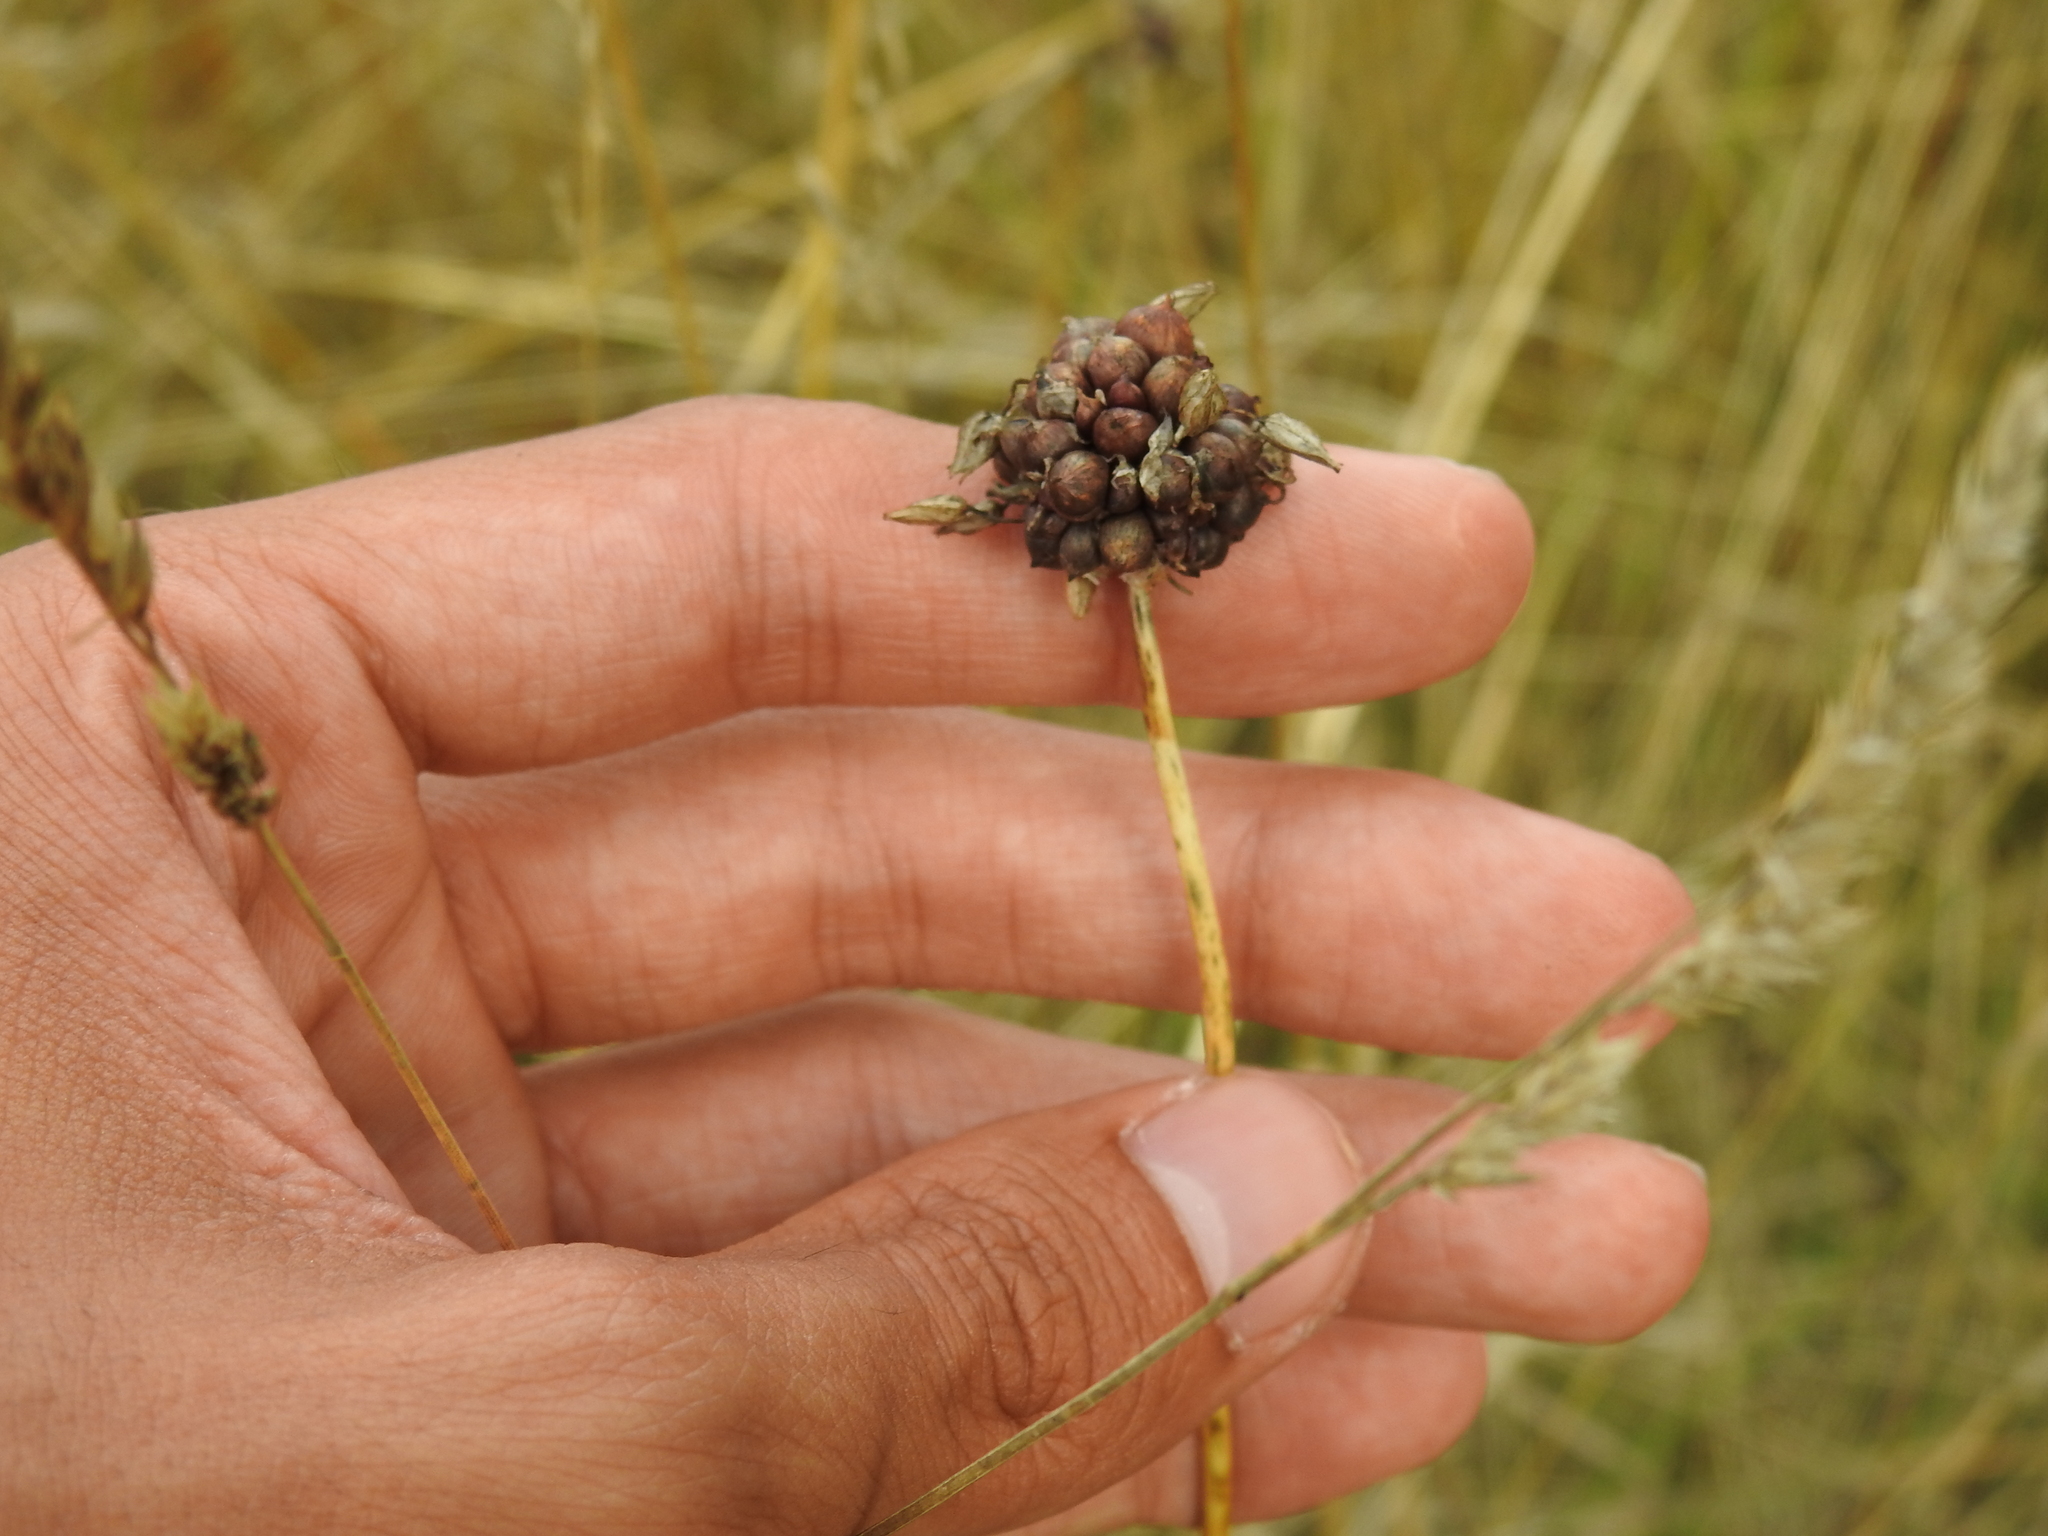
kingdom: Plantae
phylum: Tracheophyta
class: Liliopsida
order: Asparagales
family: Amaryllidaceae
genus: Allium
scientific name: Allium scorodoprasum
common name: Sand leek
